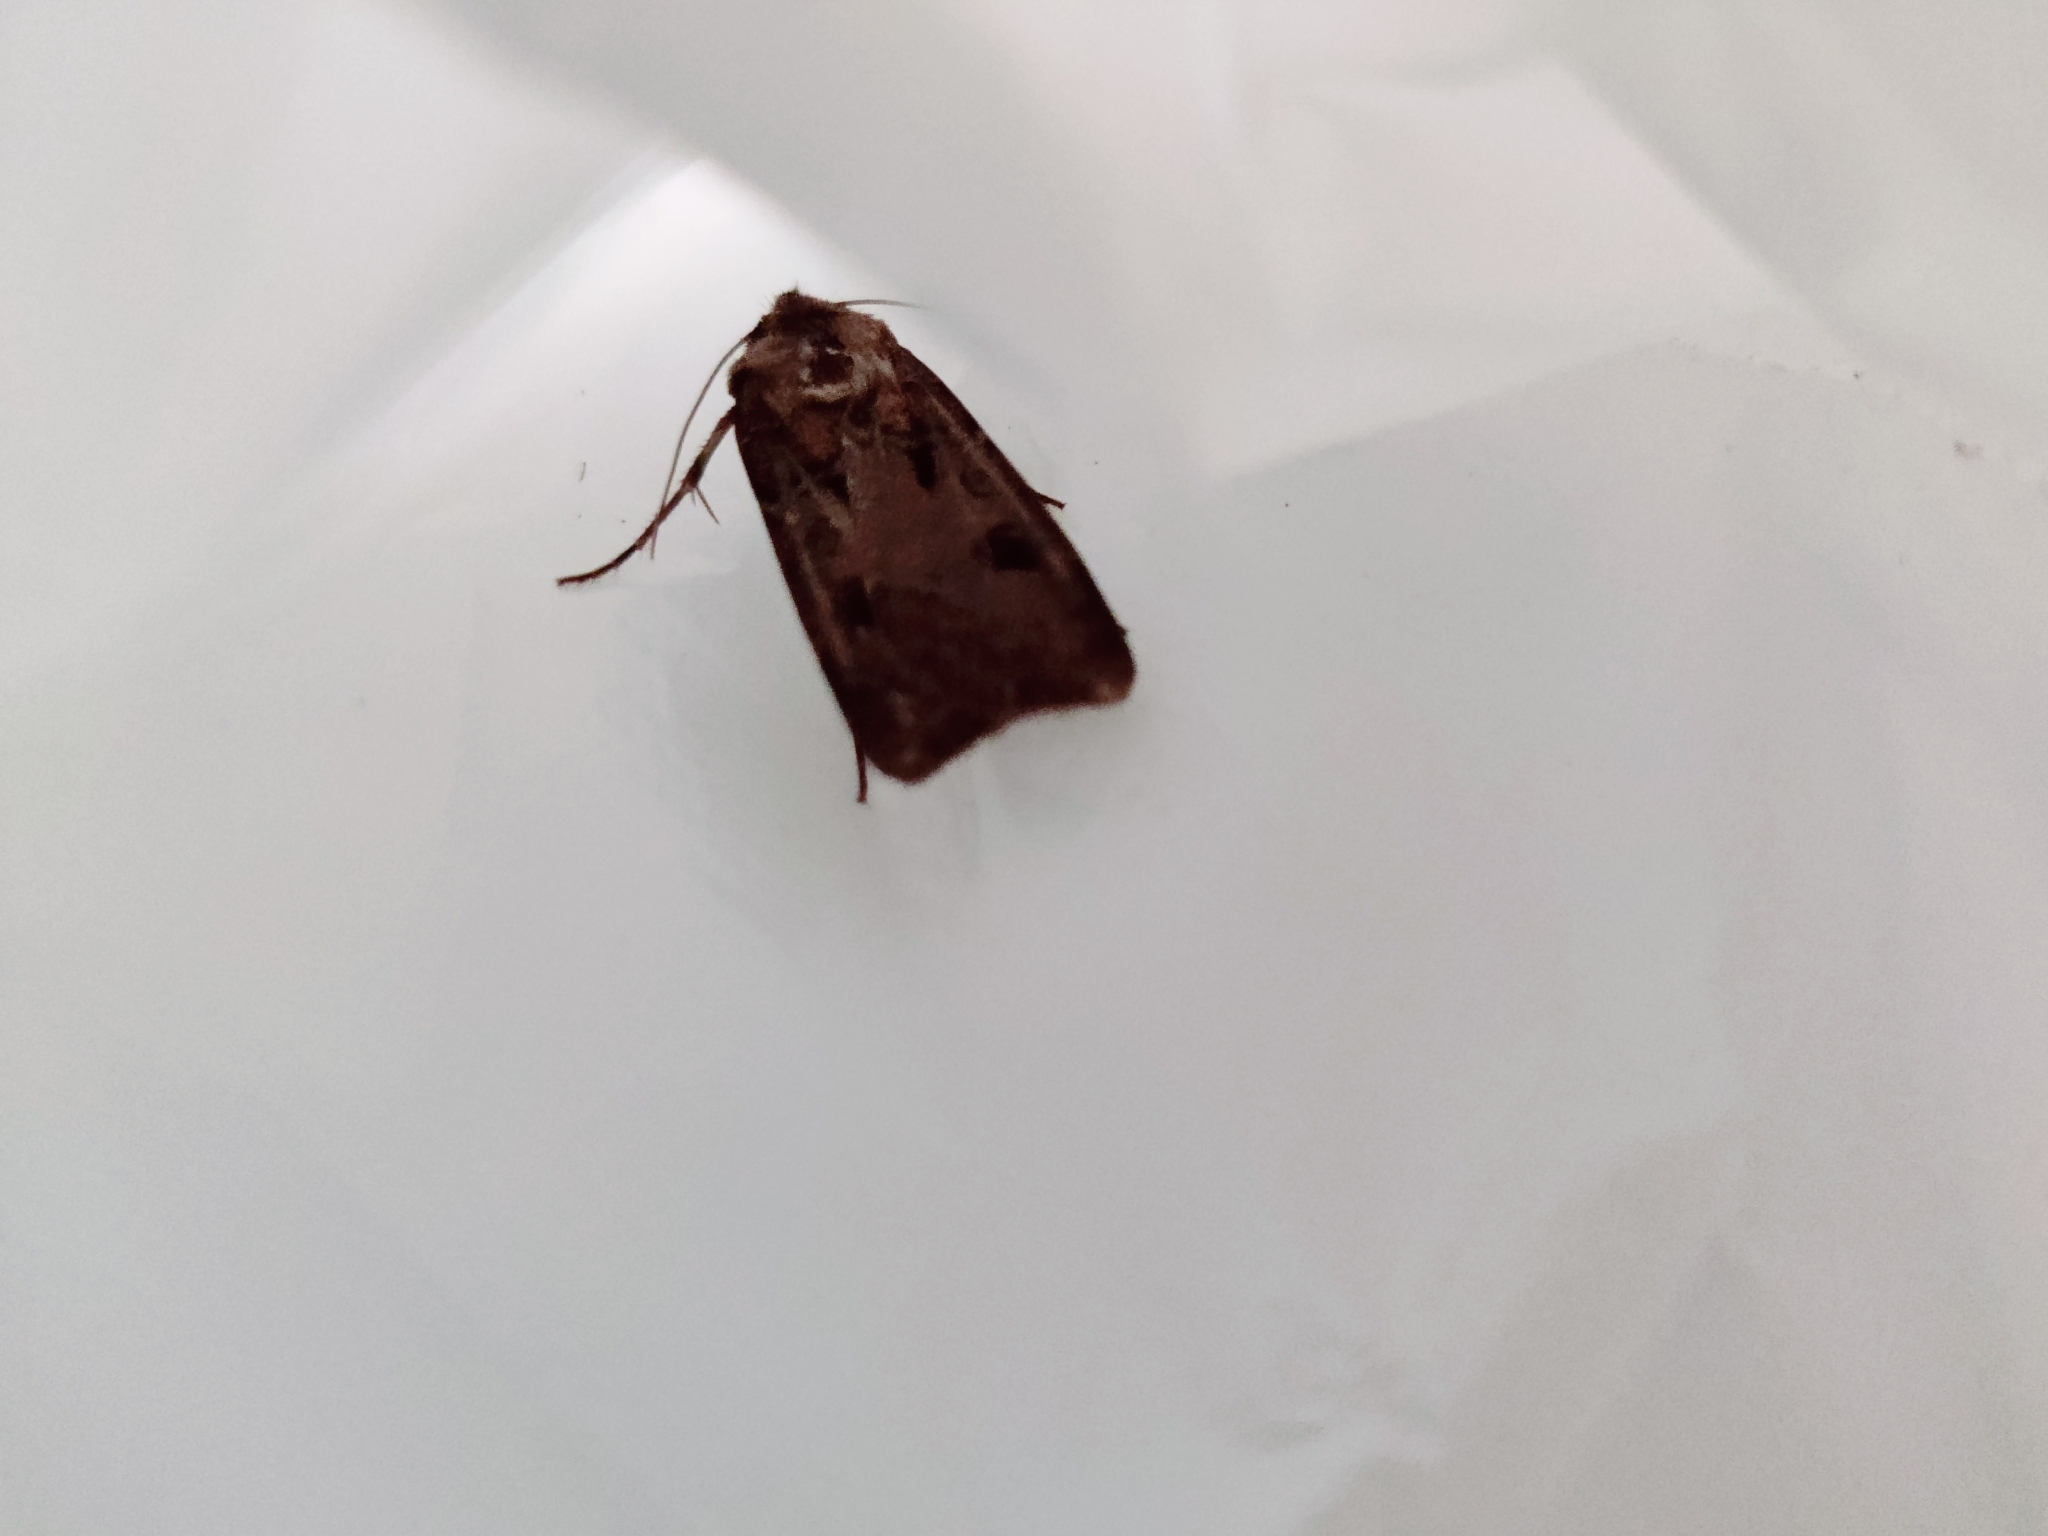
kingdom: Animalia
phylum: Arthropoda
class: Insecta
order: Lepidoptera
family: Noctuidae
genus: Agrotis
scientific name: Agrotis exclamationis
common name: Heart and dart
